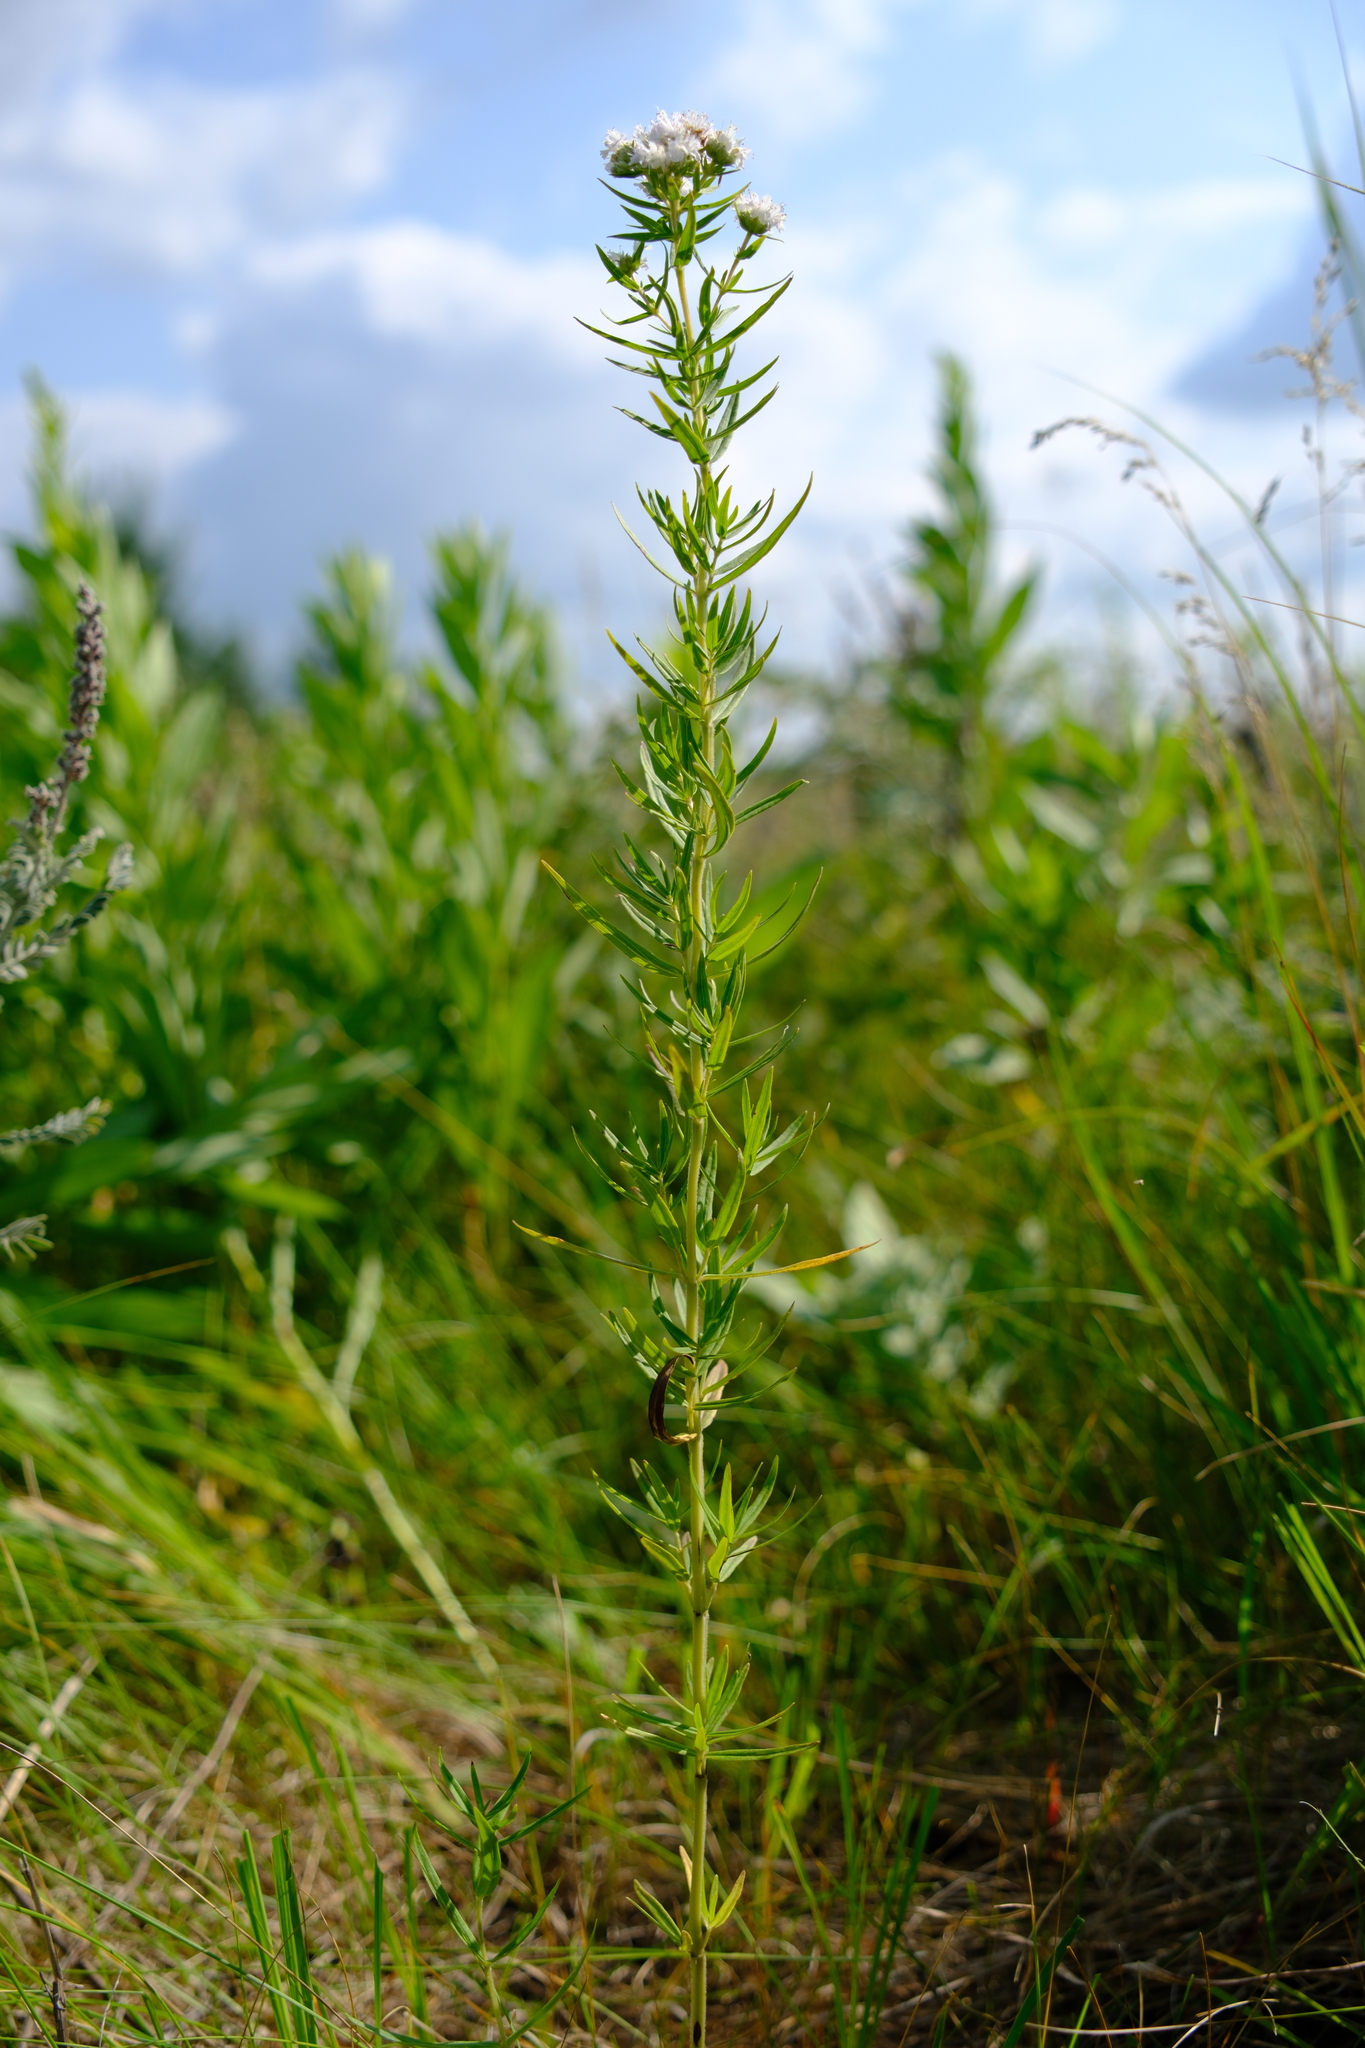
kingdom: Plantae
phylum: Tracheophyta
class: Magnoliopsida
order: Lamiales
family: Lamiaceae
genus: Pycnanthemum
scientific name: Pycnanthemum virginianum
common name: Virginia mountain-mint
